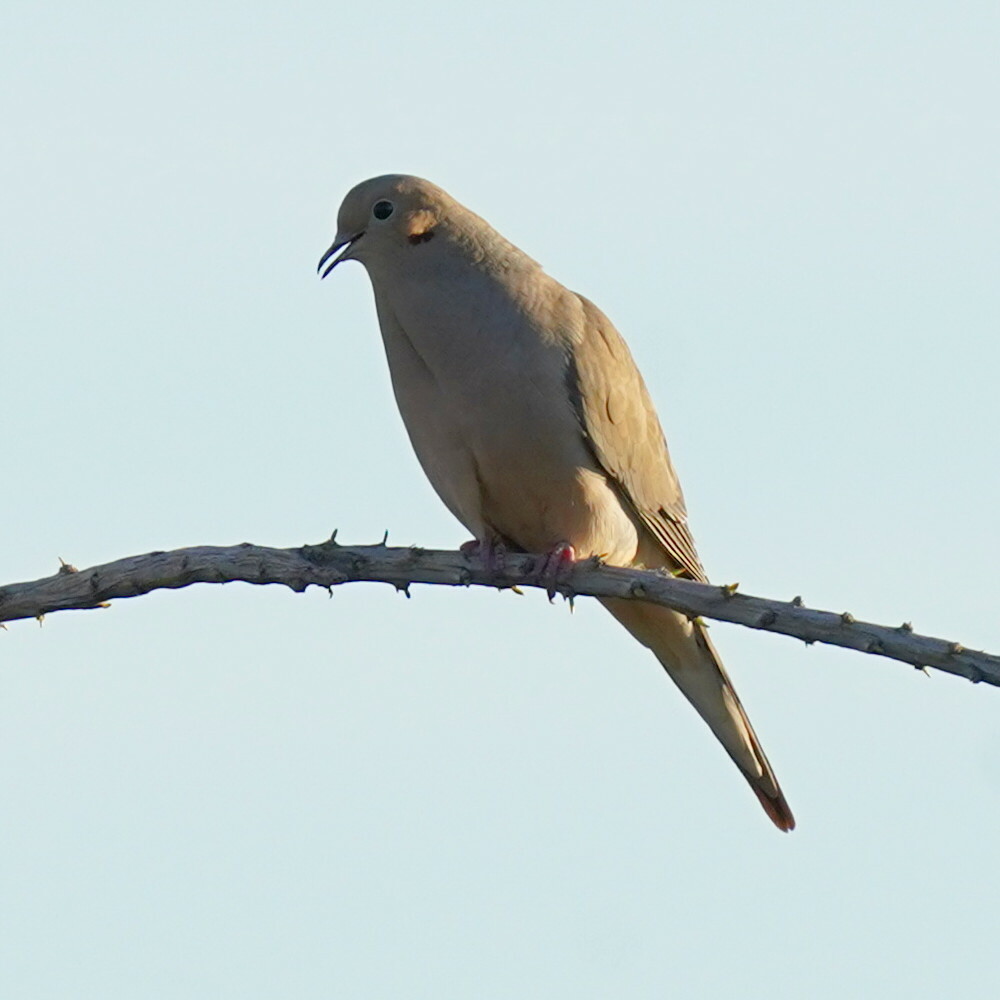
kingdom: Animalia
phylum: Chordata
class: Aves
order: Columbiformes
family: Columbidae
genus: Zenaida
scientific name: Zenaida macroura
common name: Mourning dove
